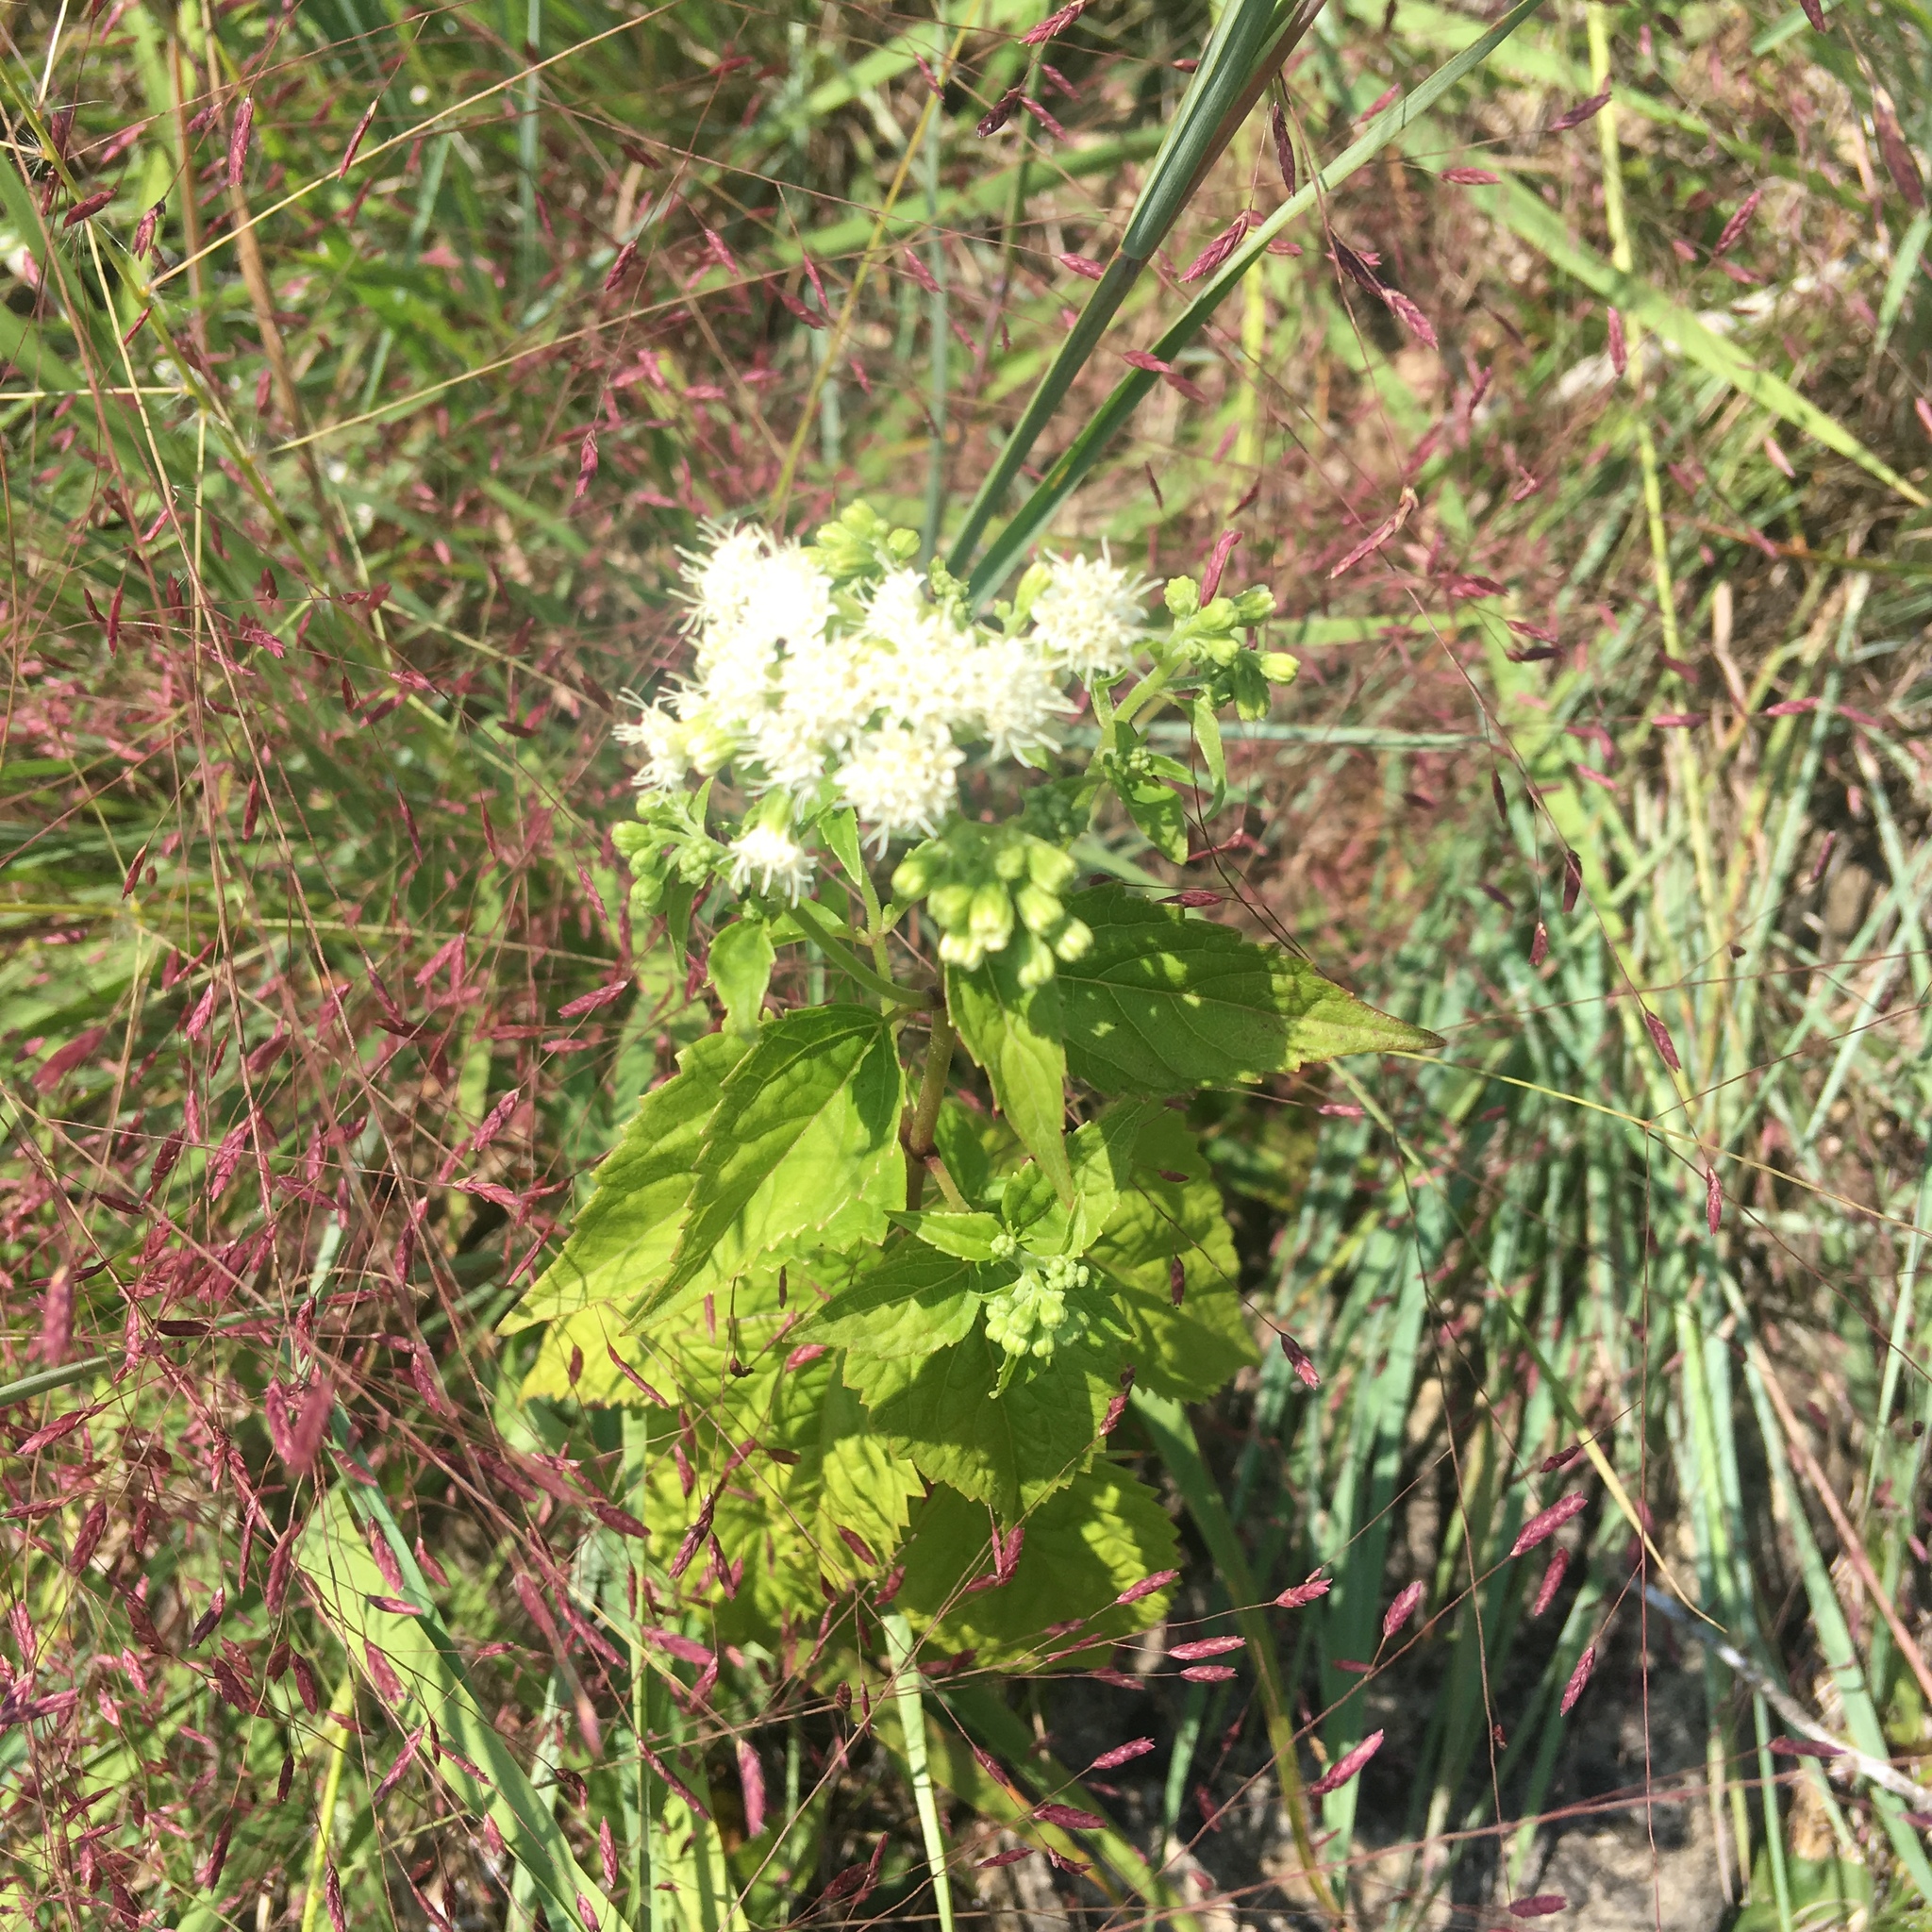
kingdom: Plantae
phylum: Tracheophyta
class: Magnoliopsida
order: Asterales
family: Asteraceae
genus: Ageratina
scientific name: Ageratina altissima
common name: White snakeroot
